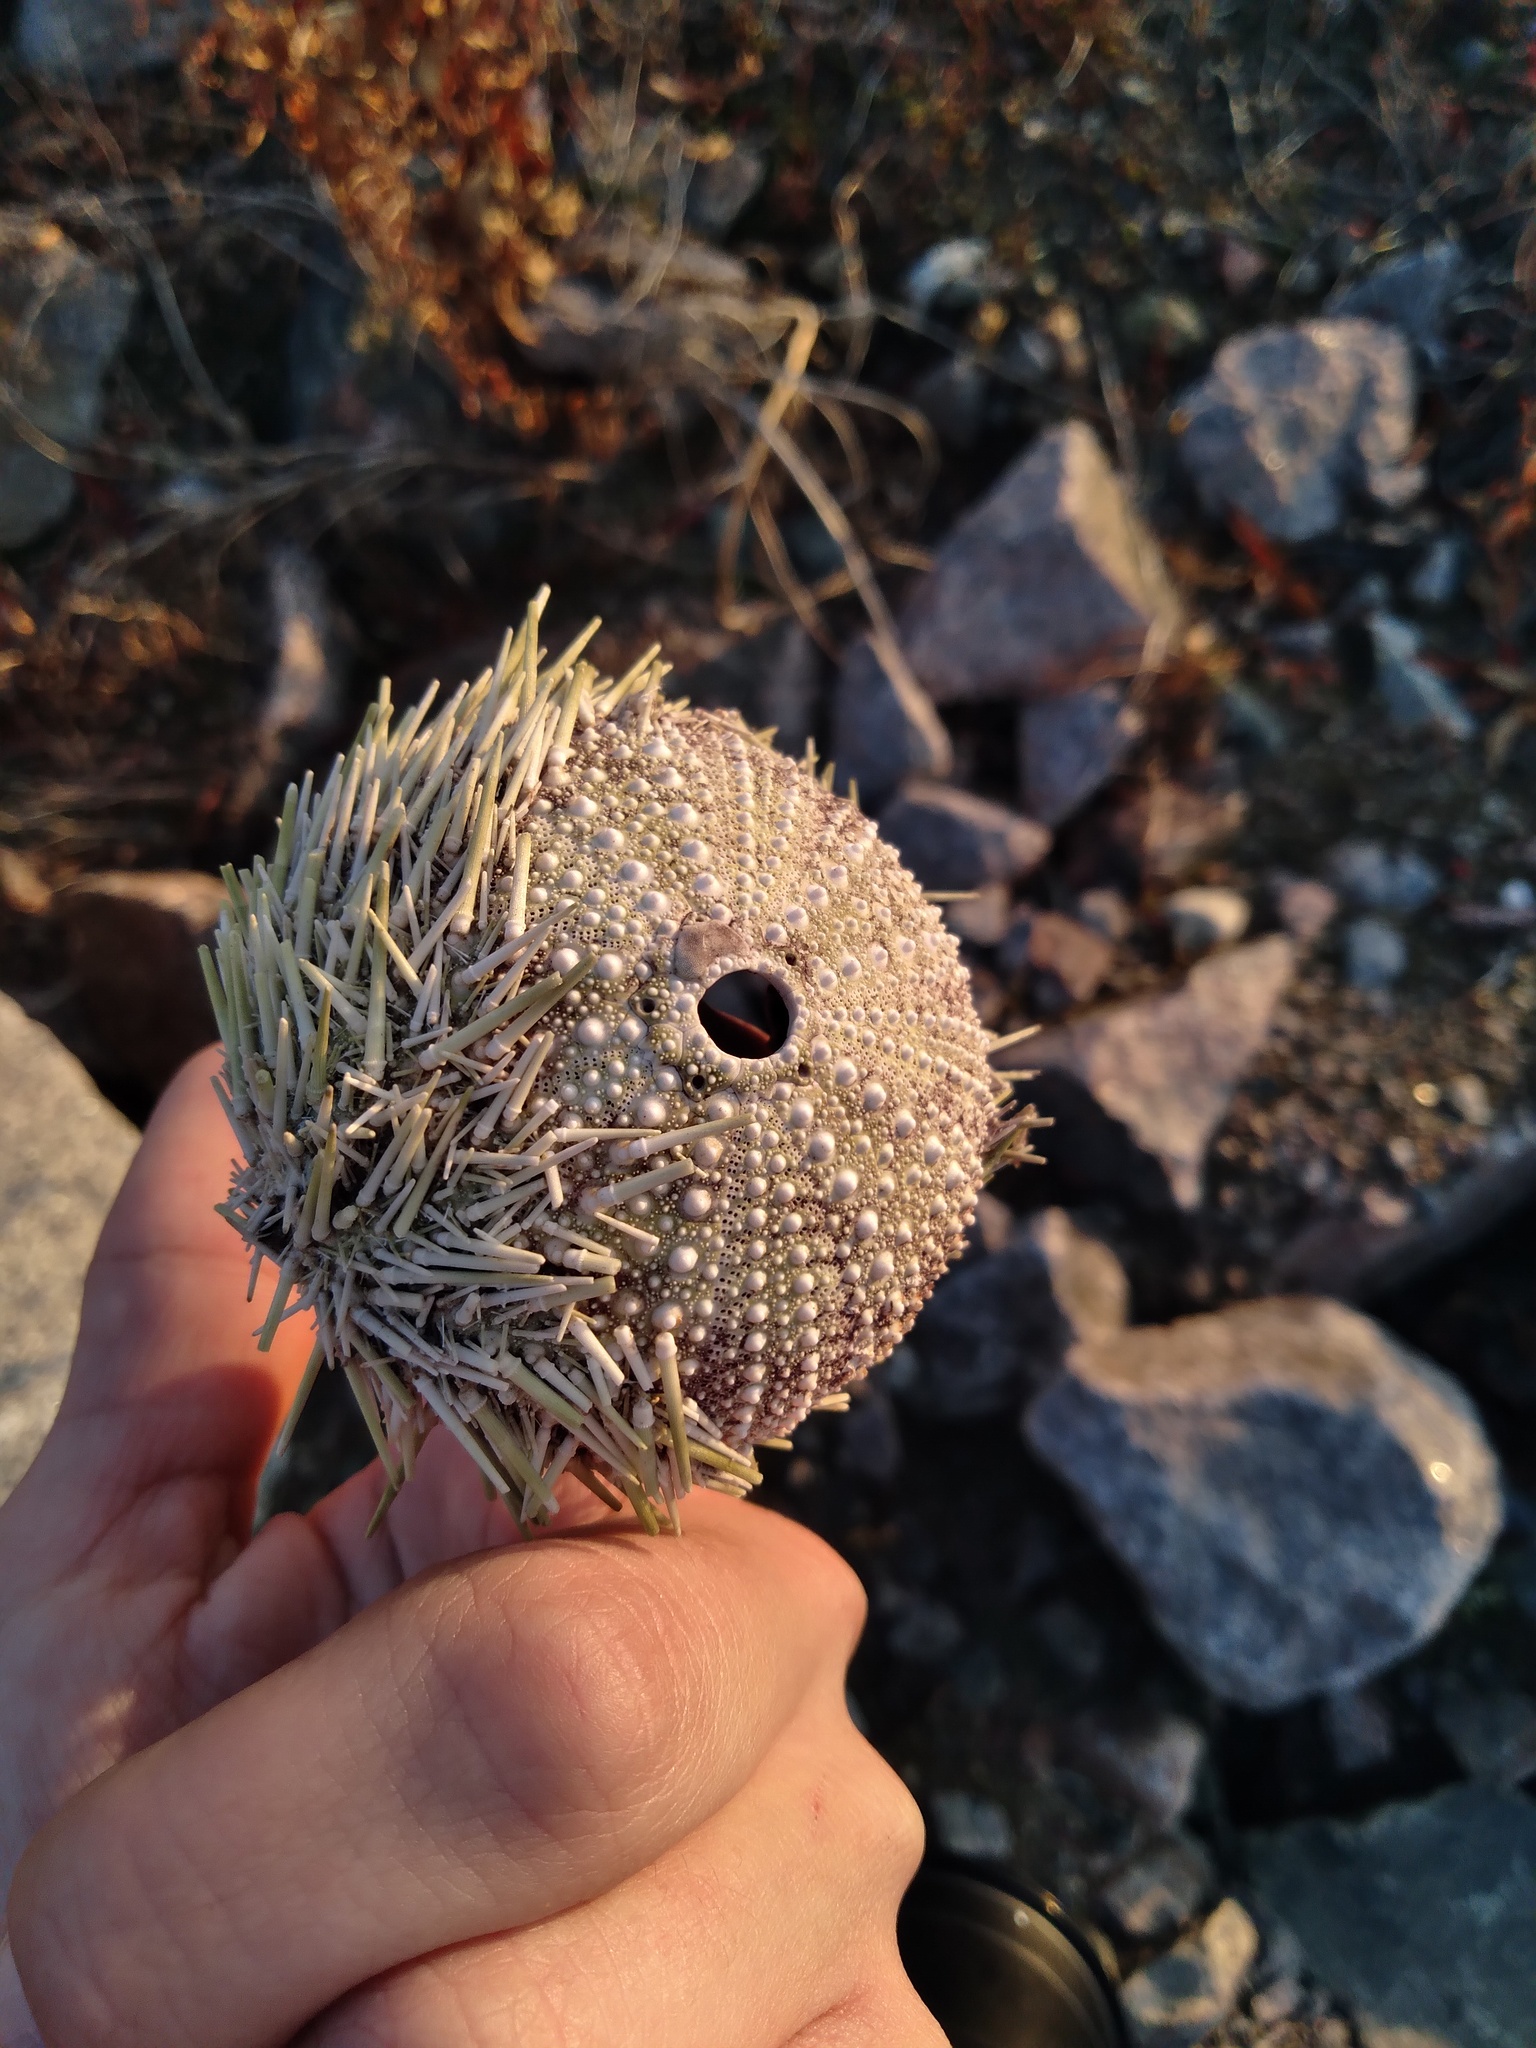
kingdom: Animalia
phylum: Echinodermata
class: Echinoidea
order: Camarodonta
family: Strongylocentrotidae
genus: Strongylocentrotus
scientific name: Strongylocentrotus droebachiensis
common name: Northern sea urchin
